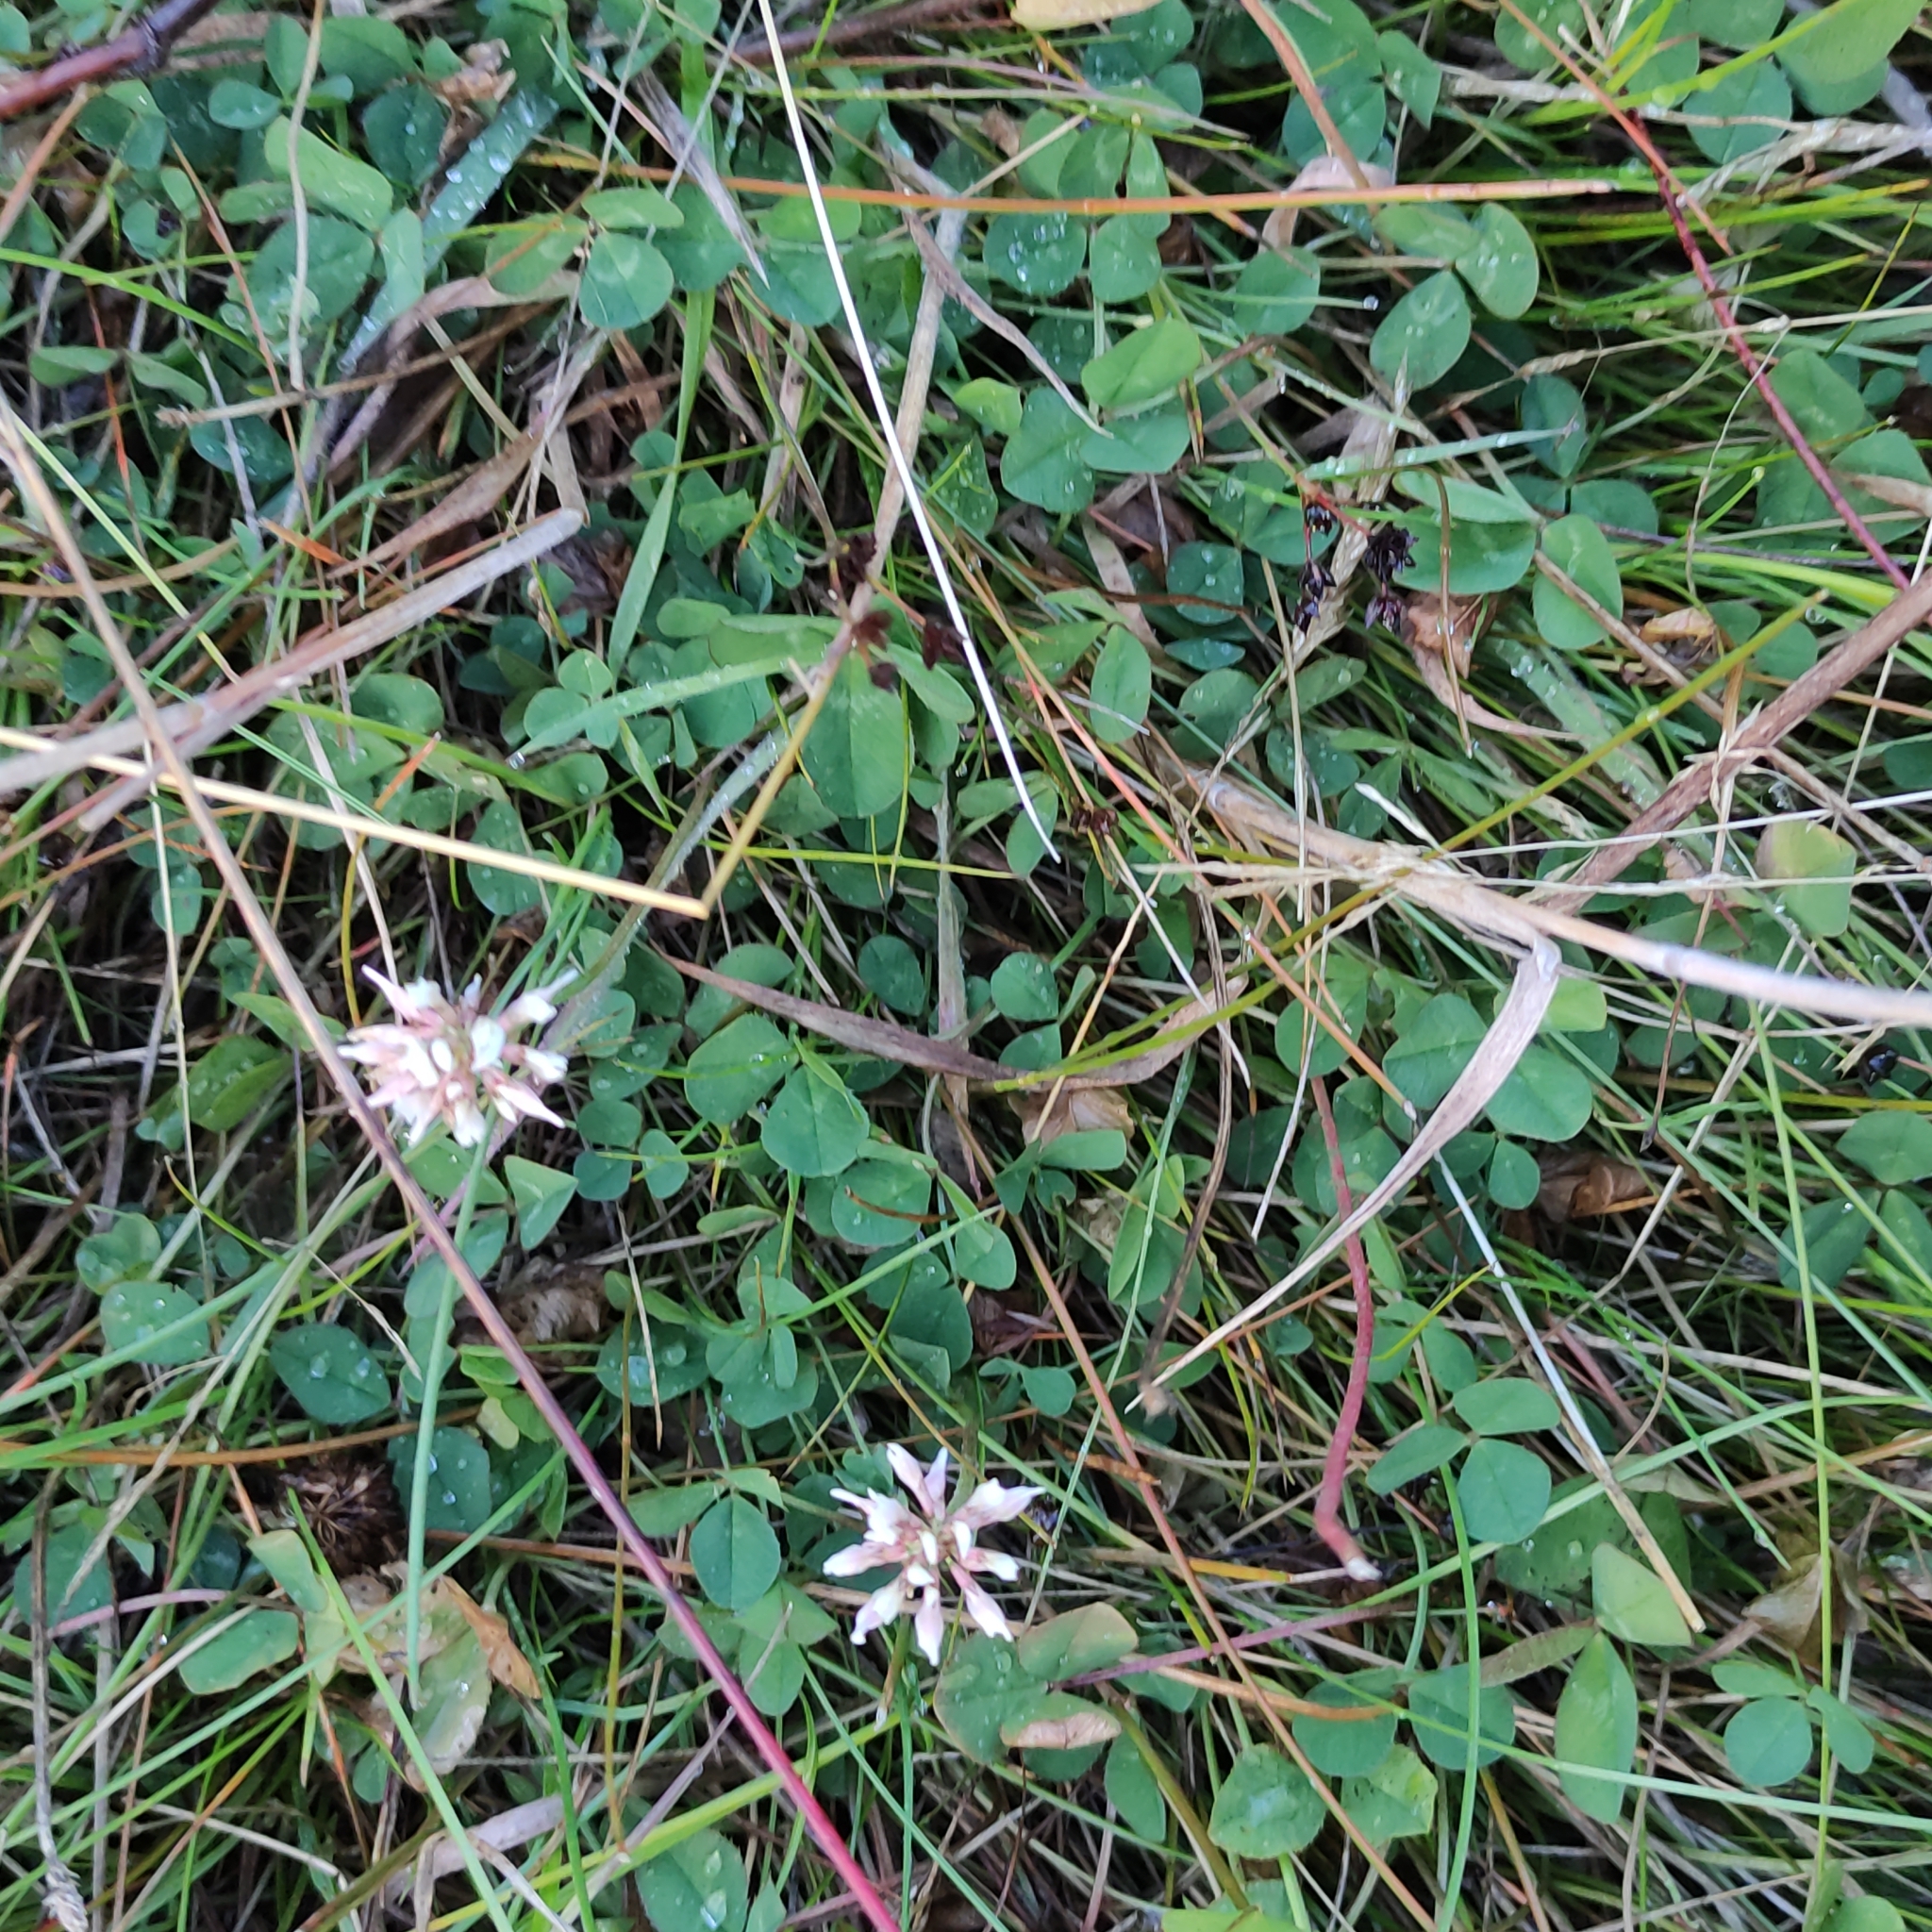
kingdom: Plantae
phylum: Tracheophyta
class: Magnoliopsida
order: Fabales
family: Fabaceae
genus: Trifolium
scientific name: Trifolium repens
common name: White clover
